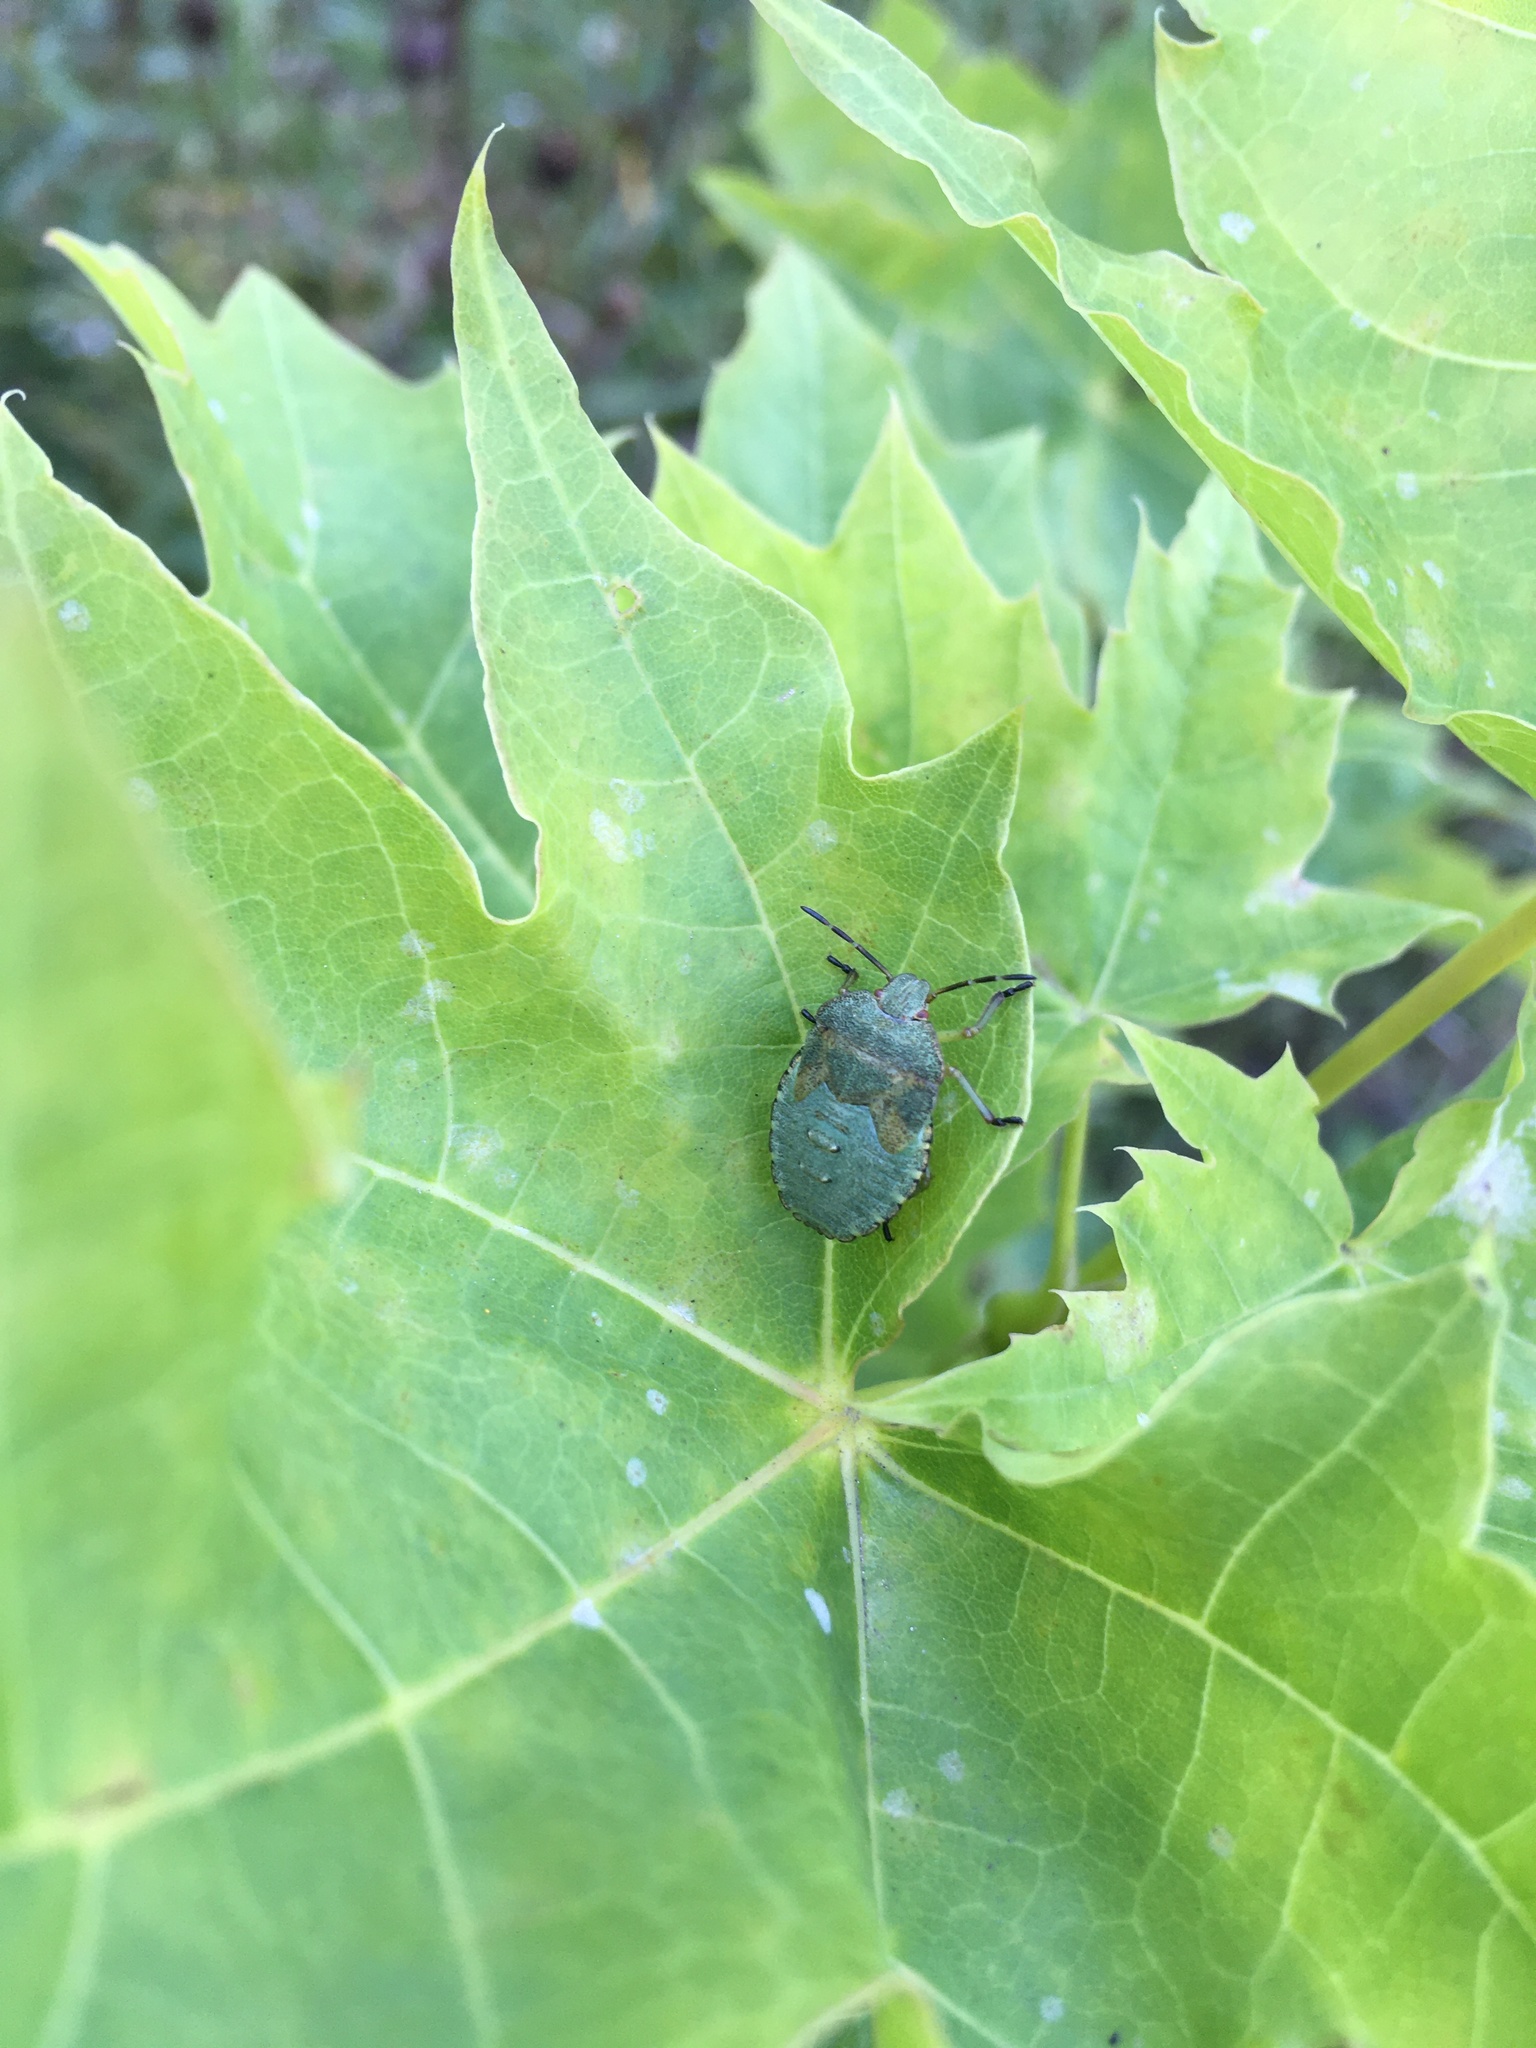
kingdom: Animalia
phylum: Arthropoda
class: Insecta
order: Hemiptera
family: Pentatomidae
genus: Palomena
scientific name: Palomena prasina
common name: Green shieldbug
